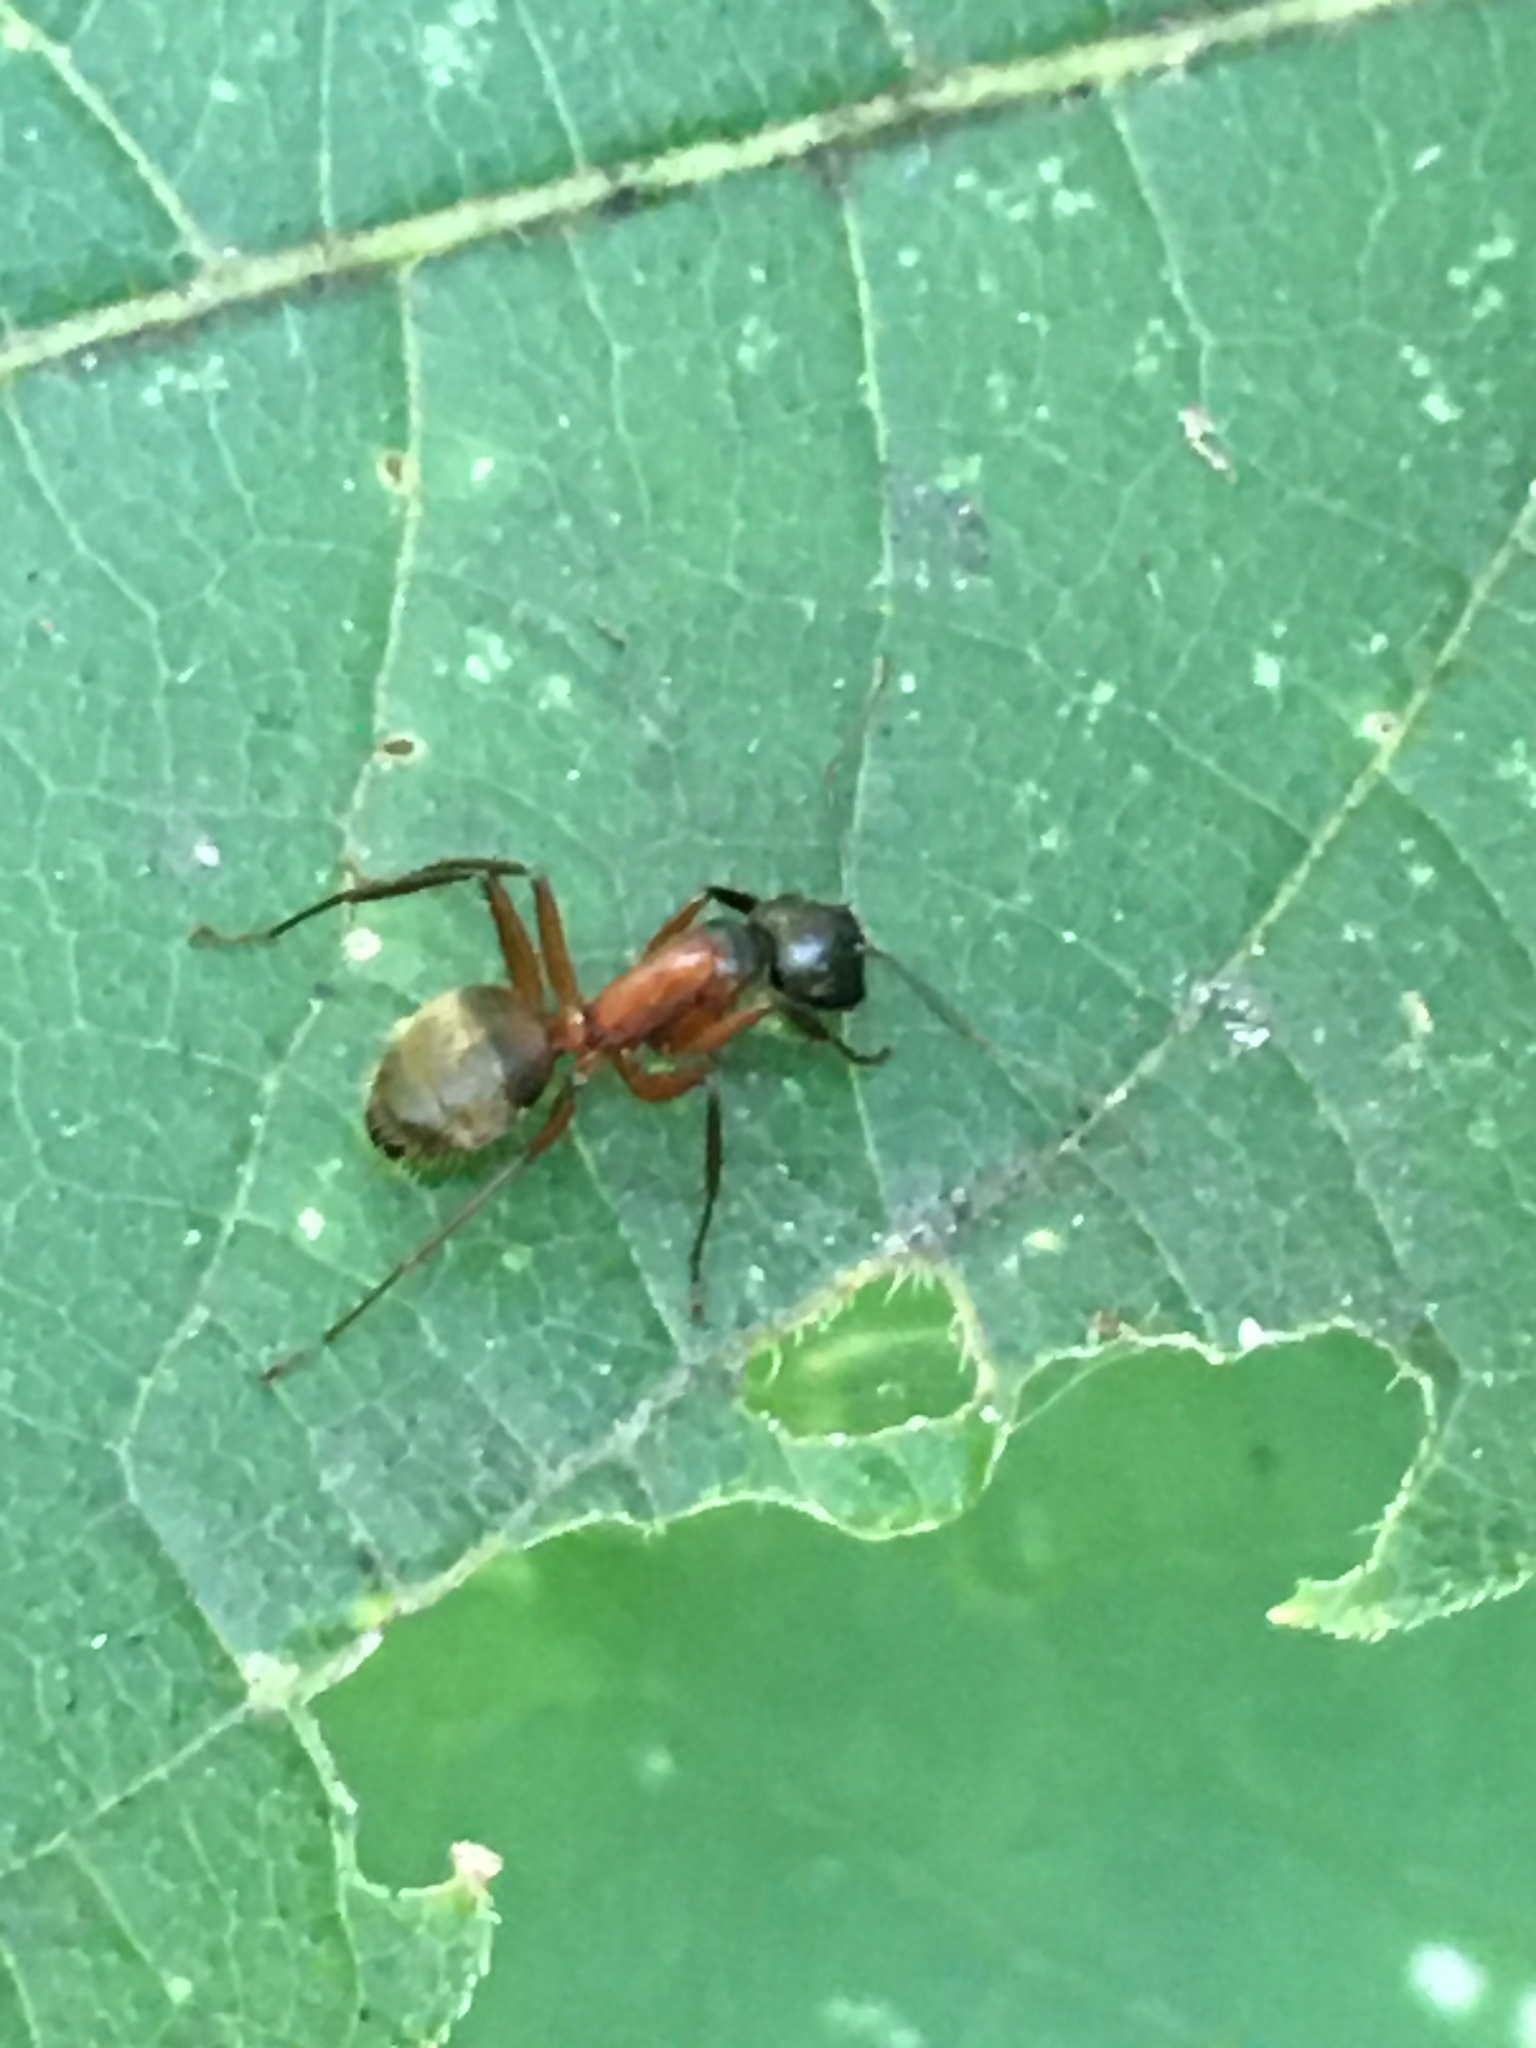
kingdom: Animalia
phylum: Arthropoda
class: Insecta
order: Hymenoptera
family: Formicidae
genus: Camponotus
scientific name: Camponotus chromaiodes
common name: Red carpenter ant
